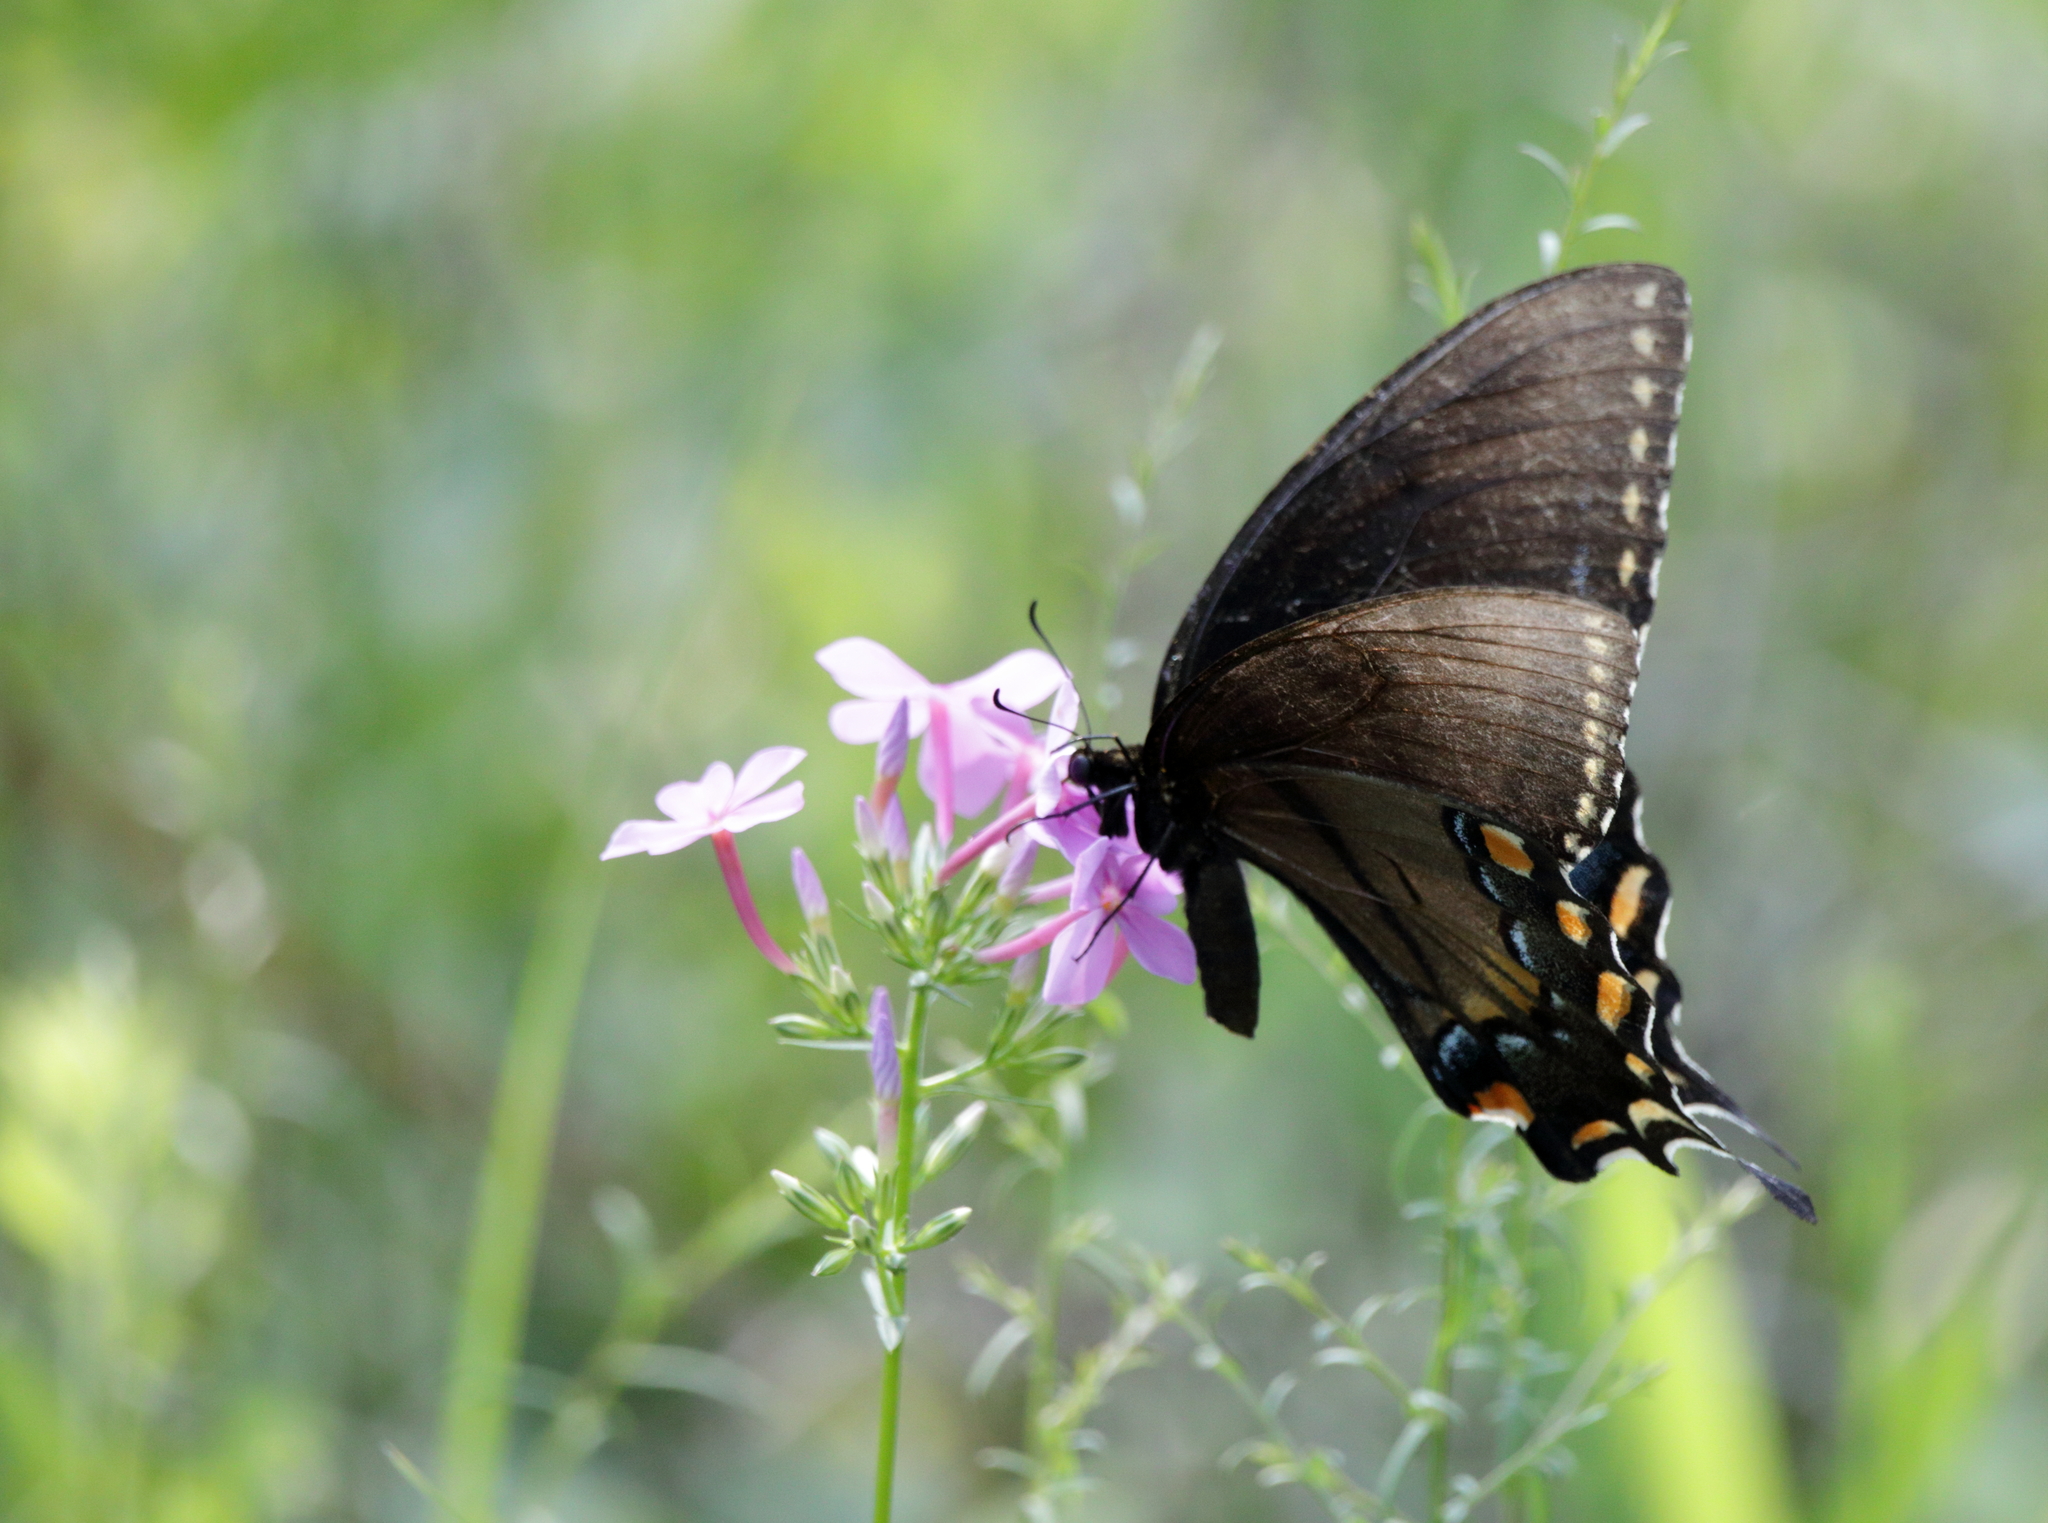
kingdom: Animalia
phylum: Arthropoda
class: Insecta
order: Lepidoptera
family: Papilionidae
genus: Papilio
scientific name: Papilio glaucus
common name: Tiger swallowtail
